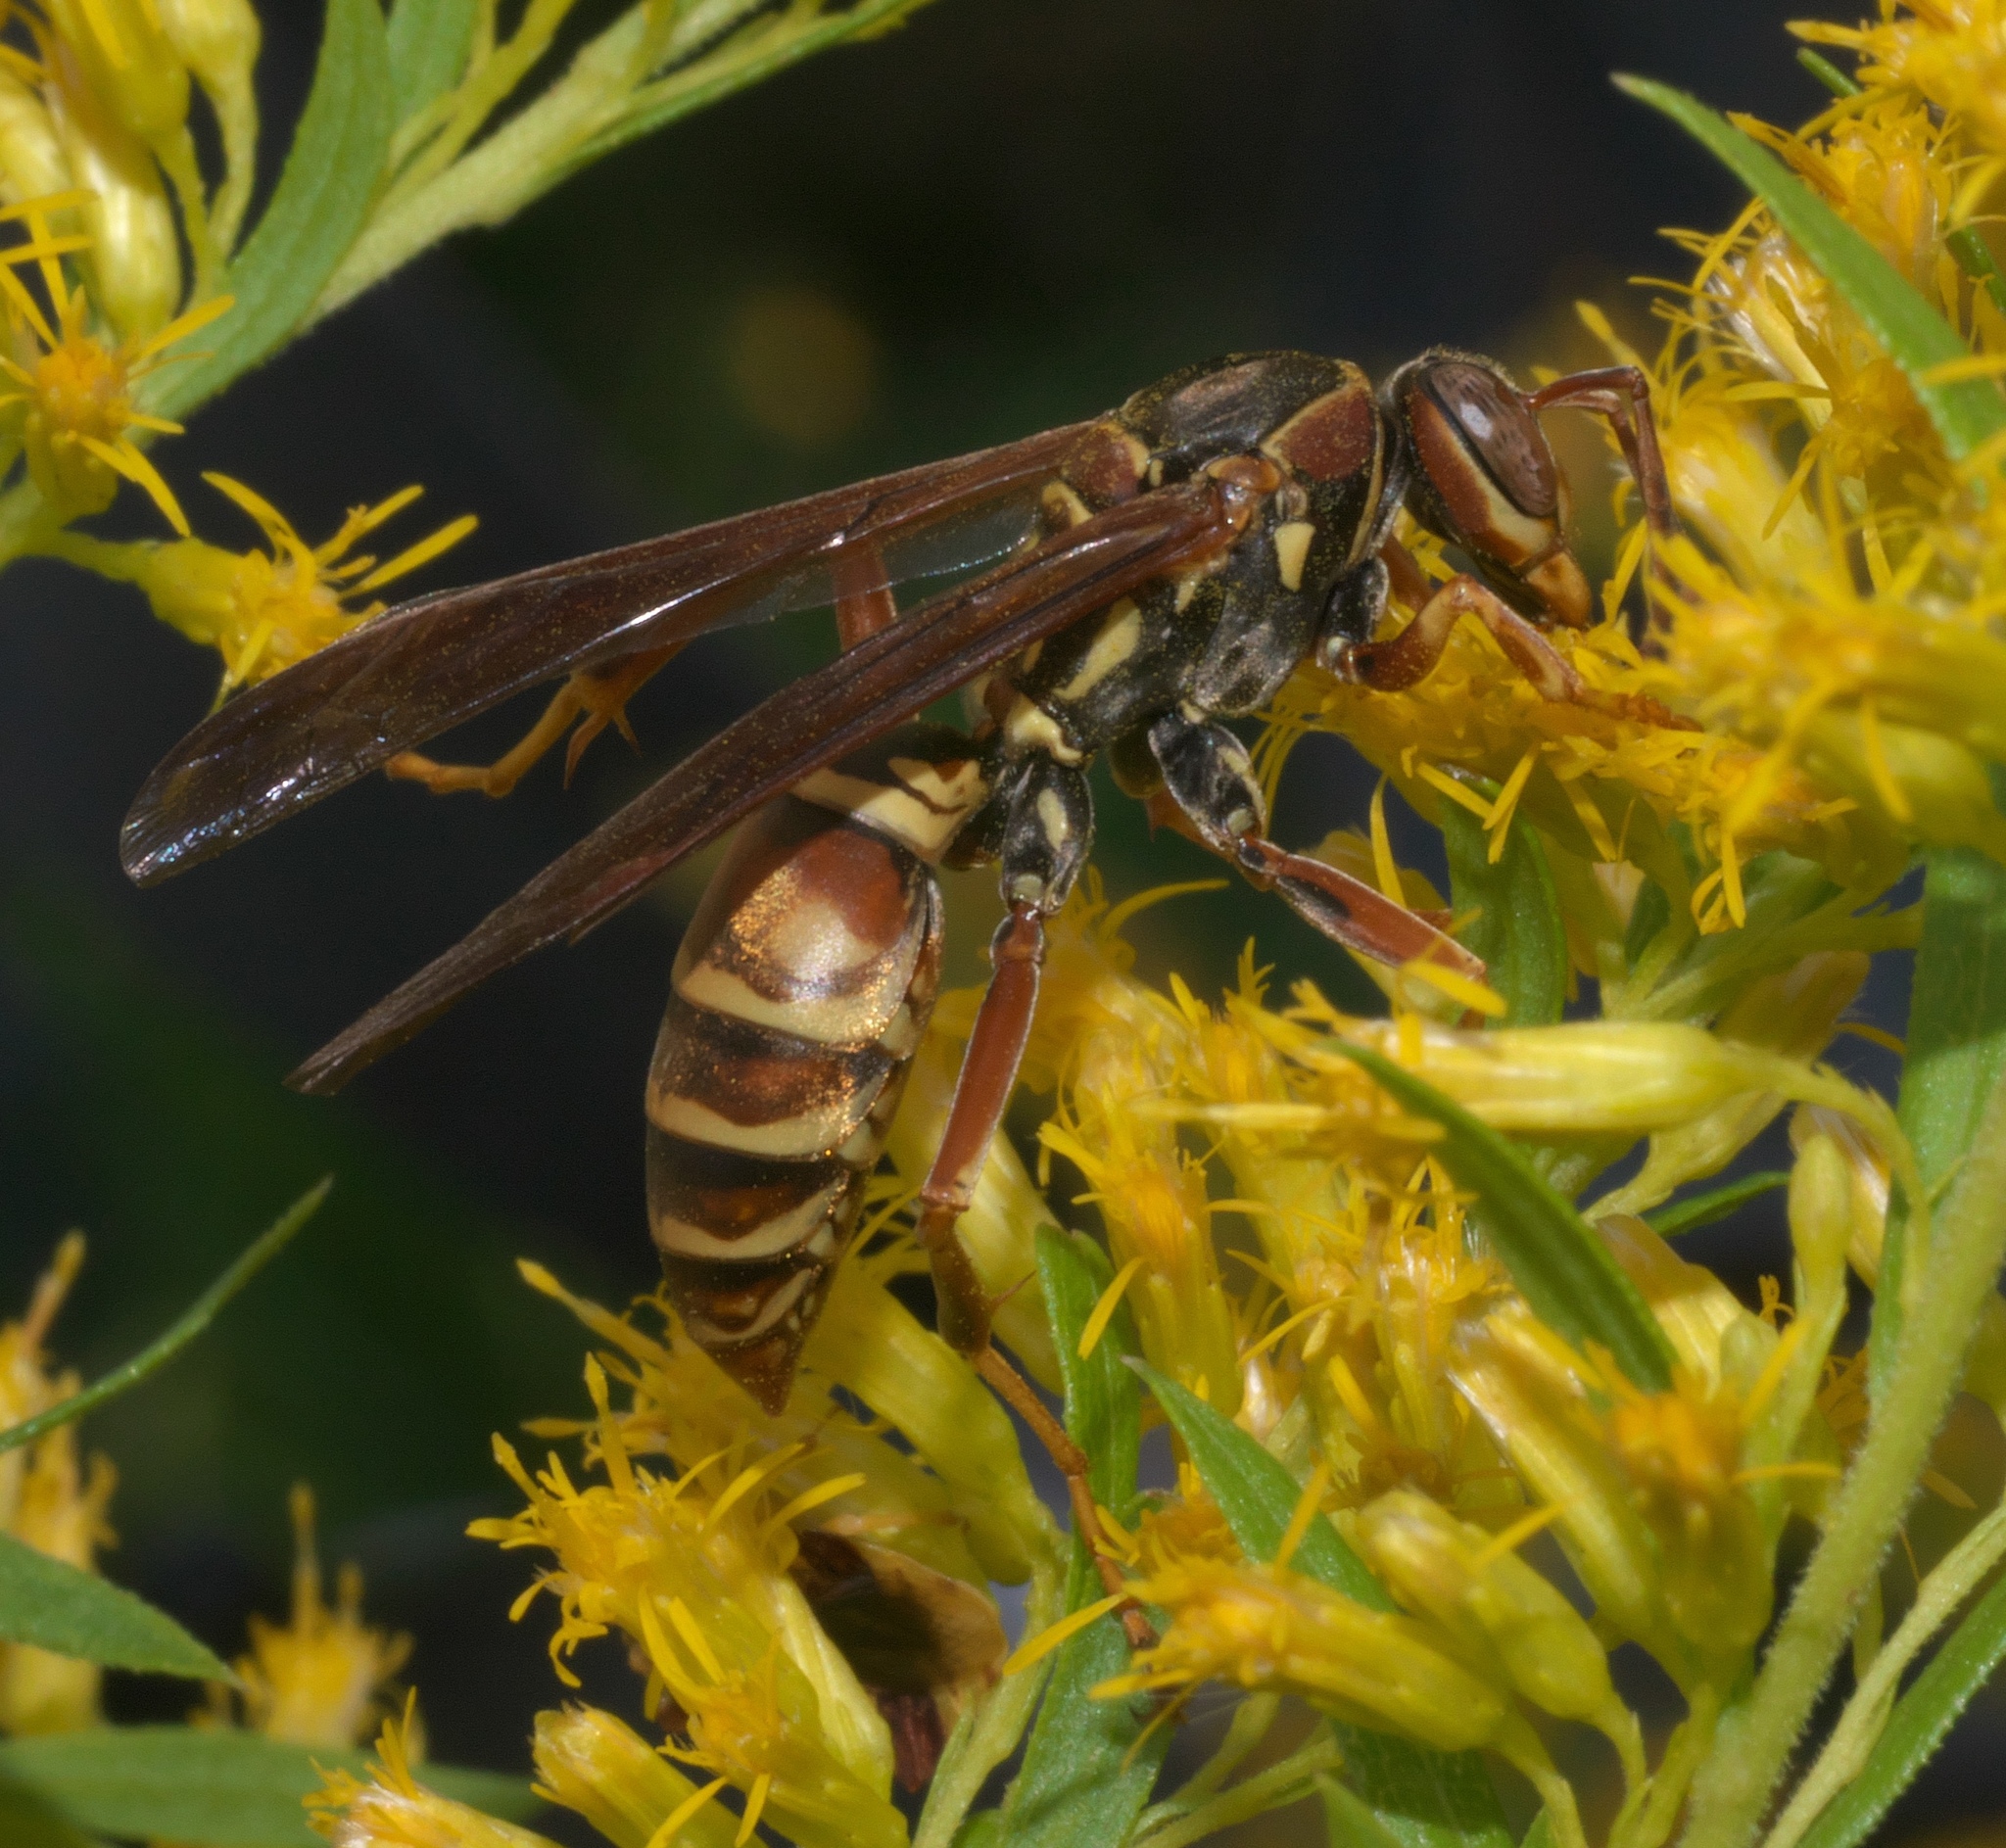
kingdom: Animalia
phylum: Arthropoda
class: Insecta
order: Hymenoptera
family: Eumenidae
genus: Polistes
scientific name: Polistes fuscatus
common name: Dark paper wasp
